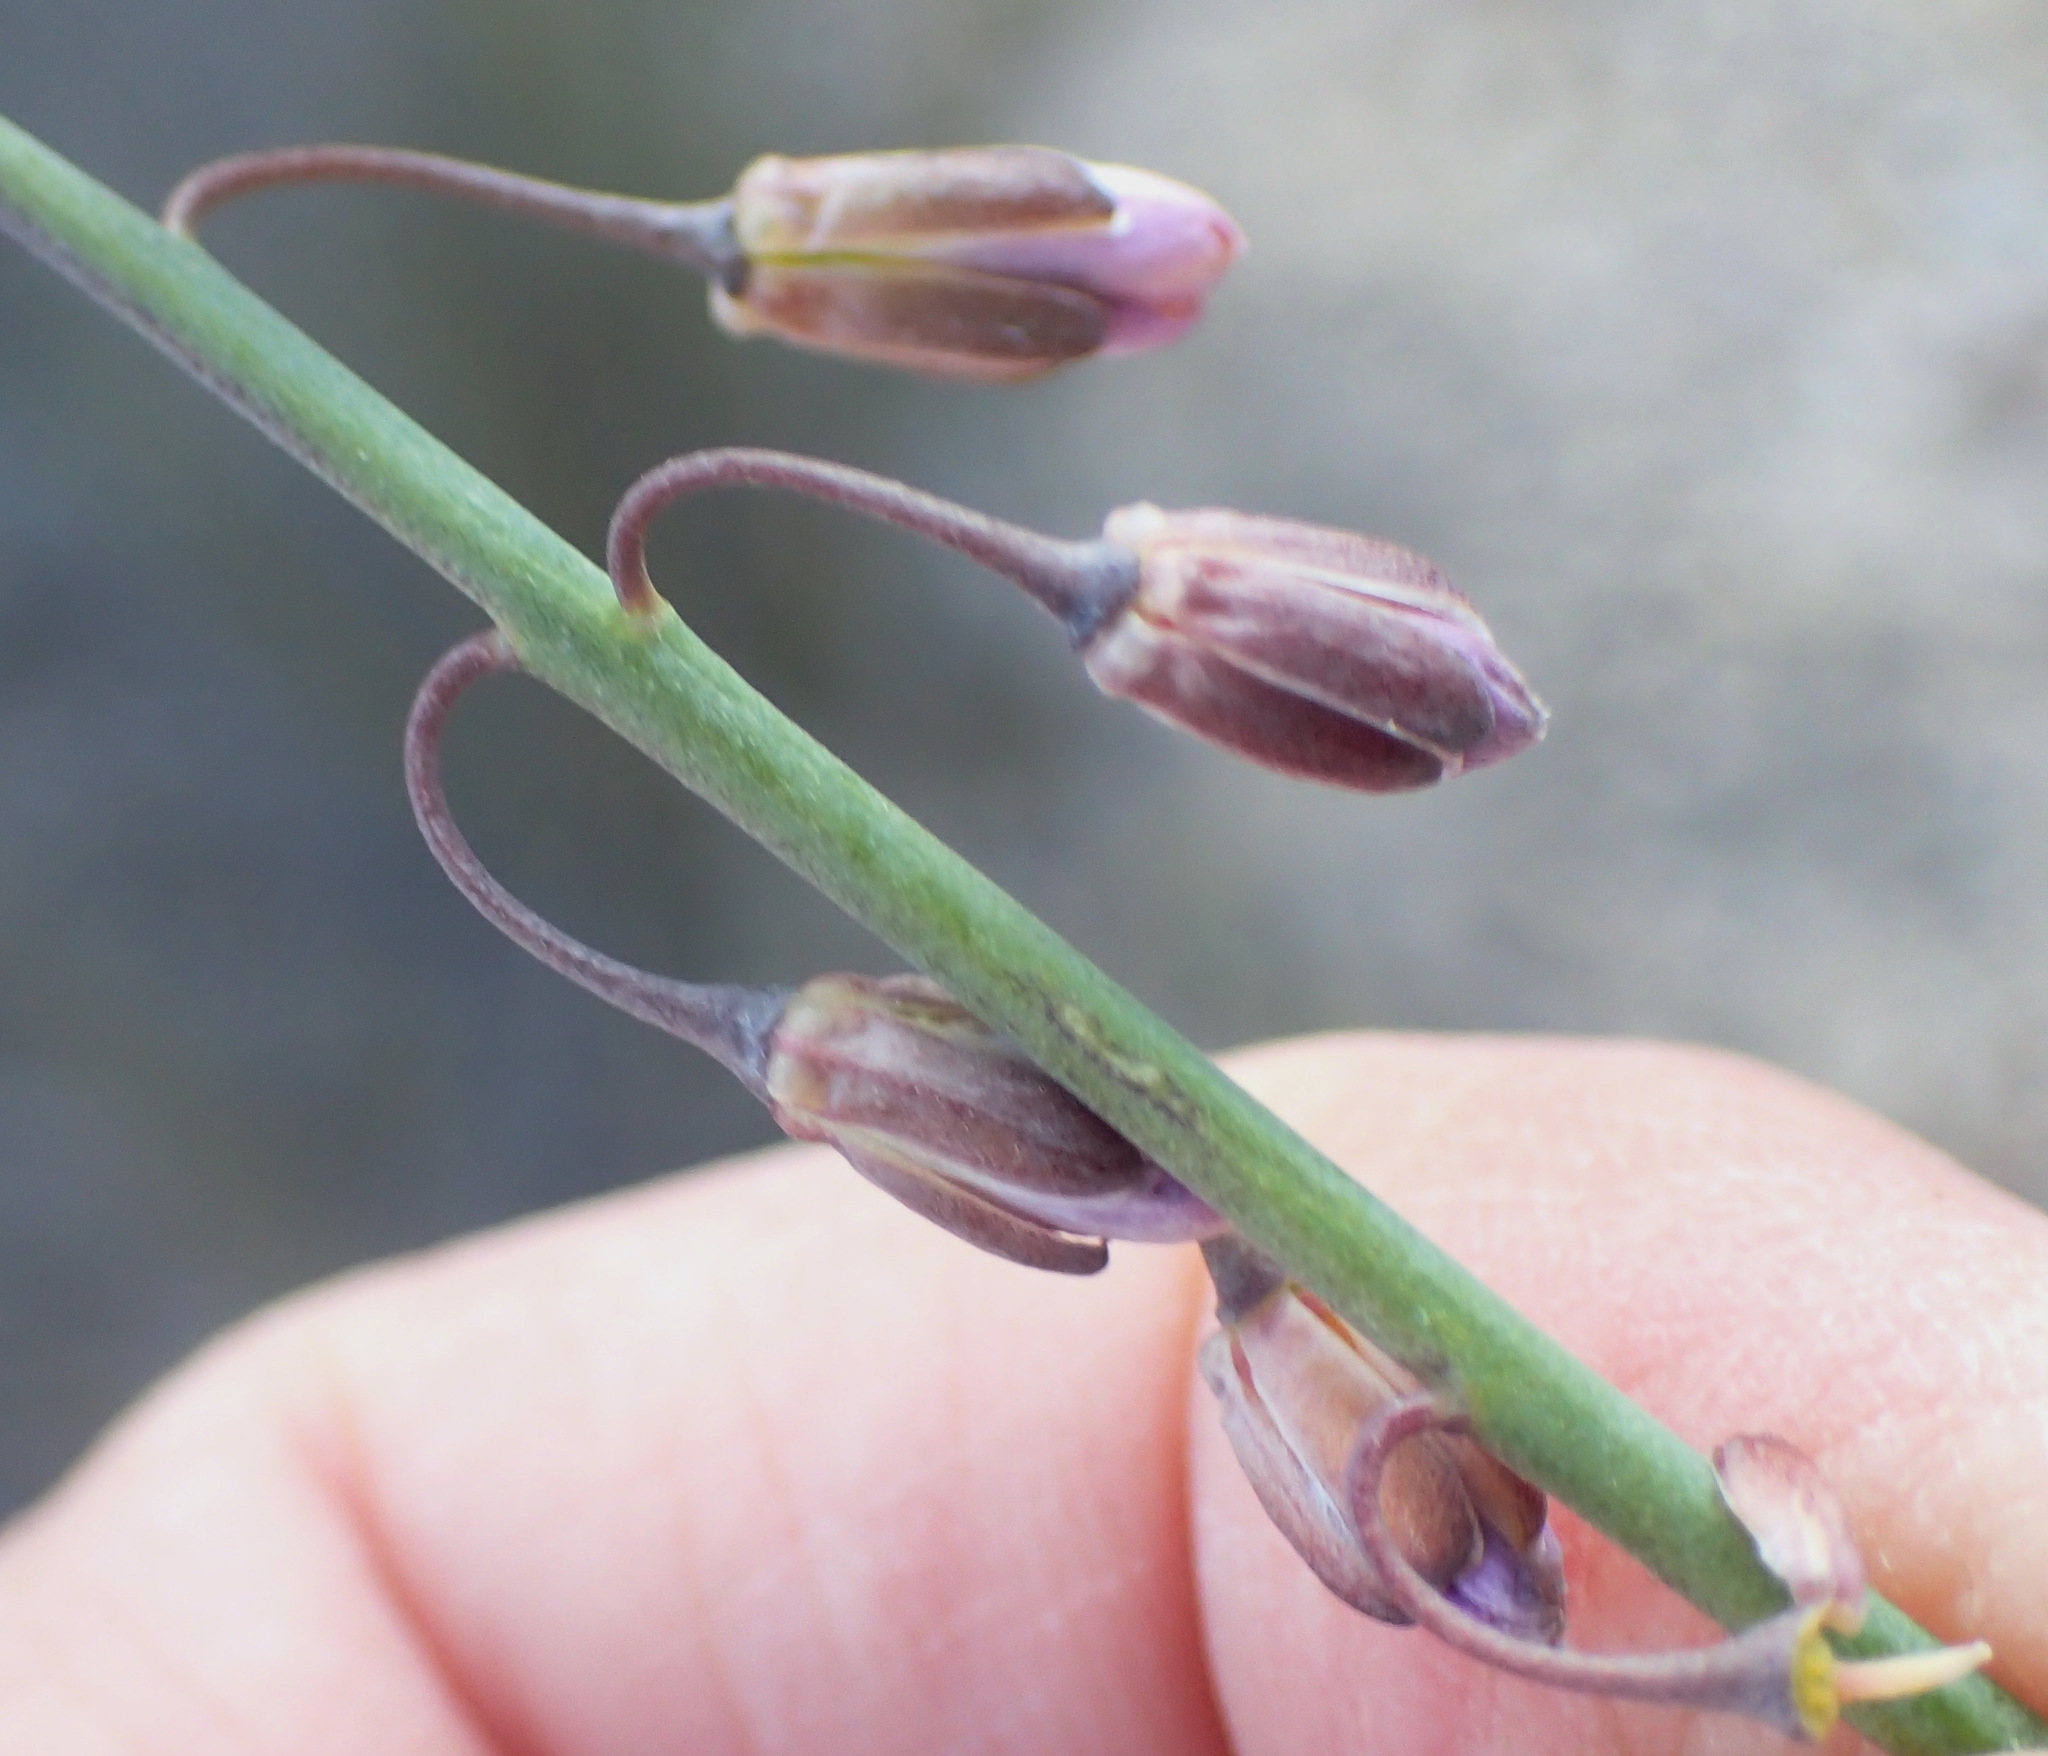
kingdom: Plantae
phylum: Tracheophyta
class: Magnoliopsida
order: Brassicales
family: Brassicaceae
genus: Heliophila
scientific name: Heliophila cornuta
